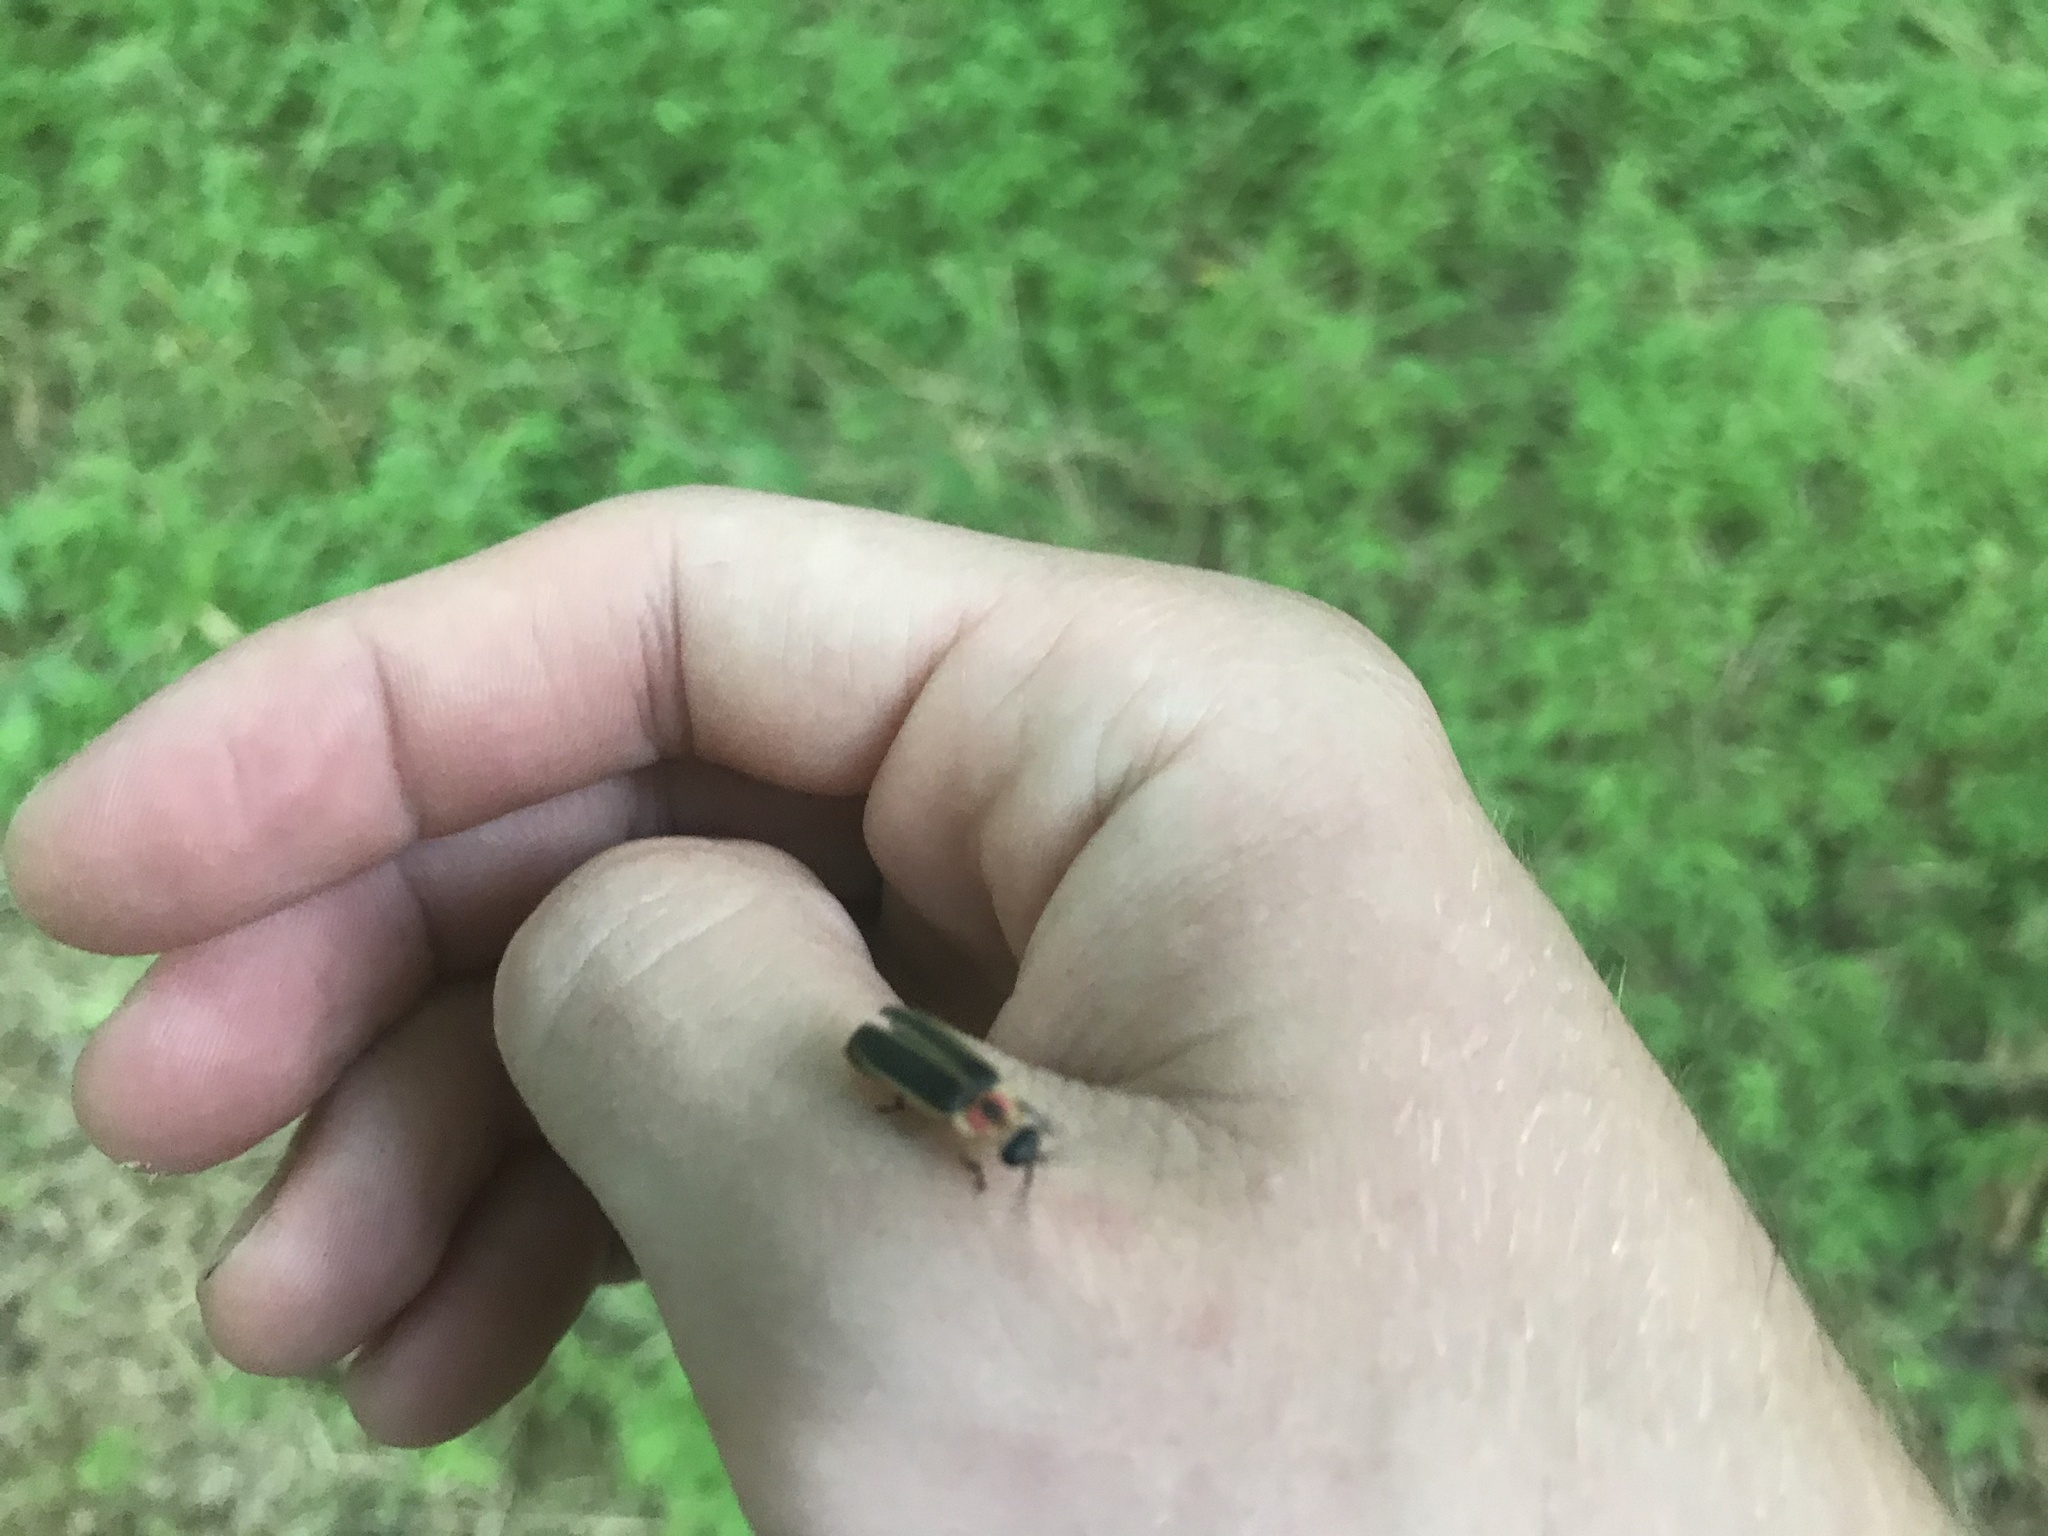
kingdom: Animalia
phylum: Arthropoda
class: Insecta
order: Coleoptera
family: Lampyridae
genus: Photinus
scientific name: Photinus pyralis
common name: Big dipper firefly
